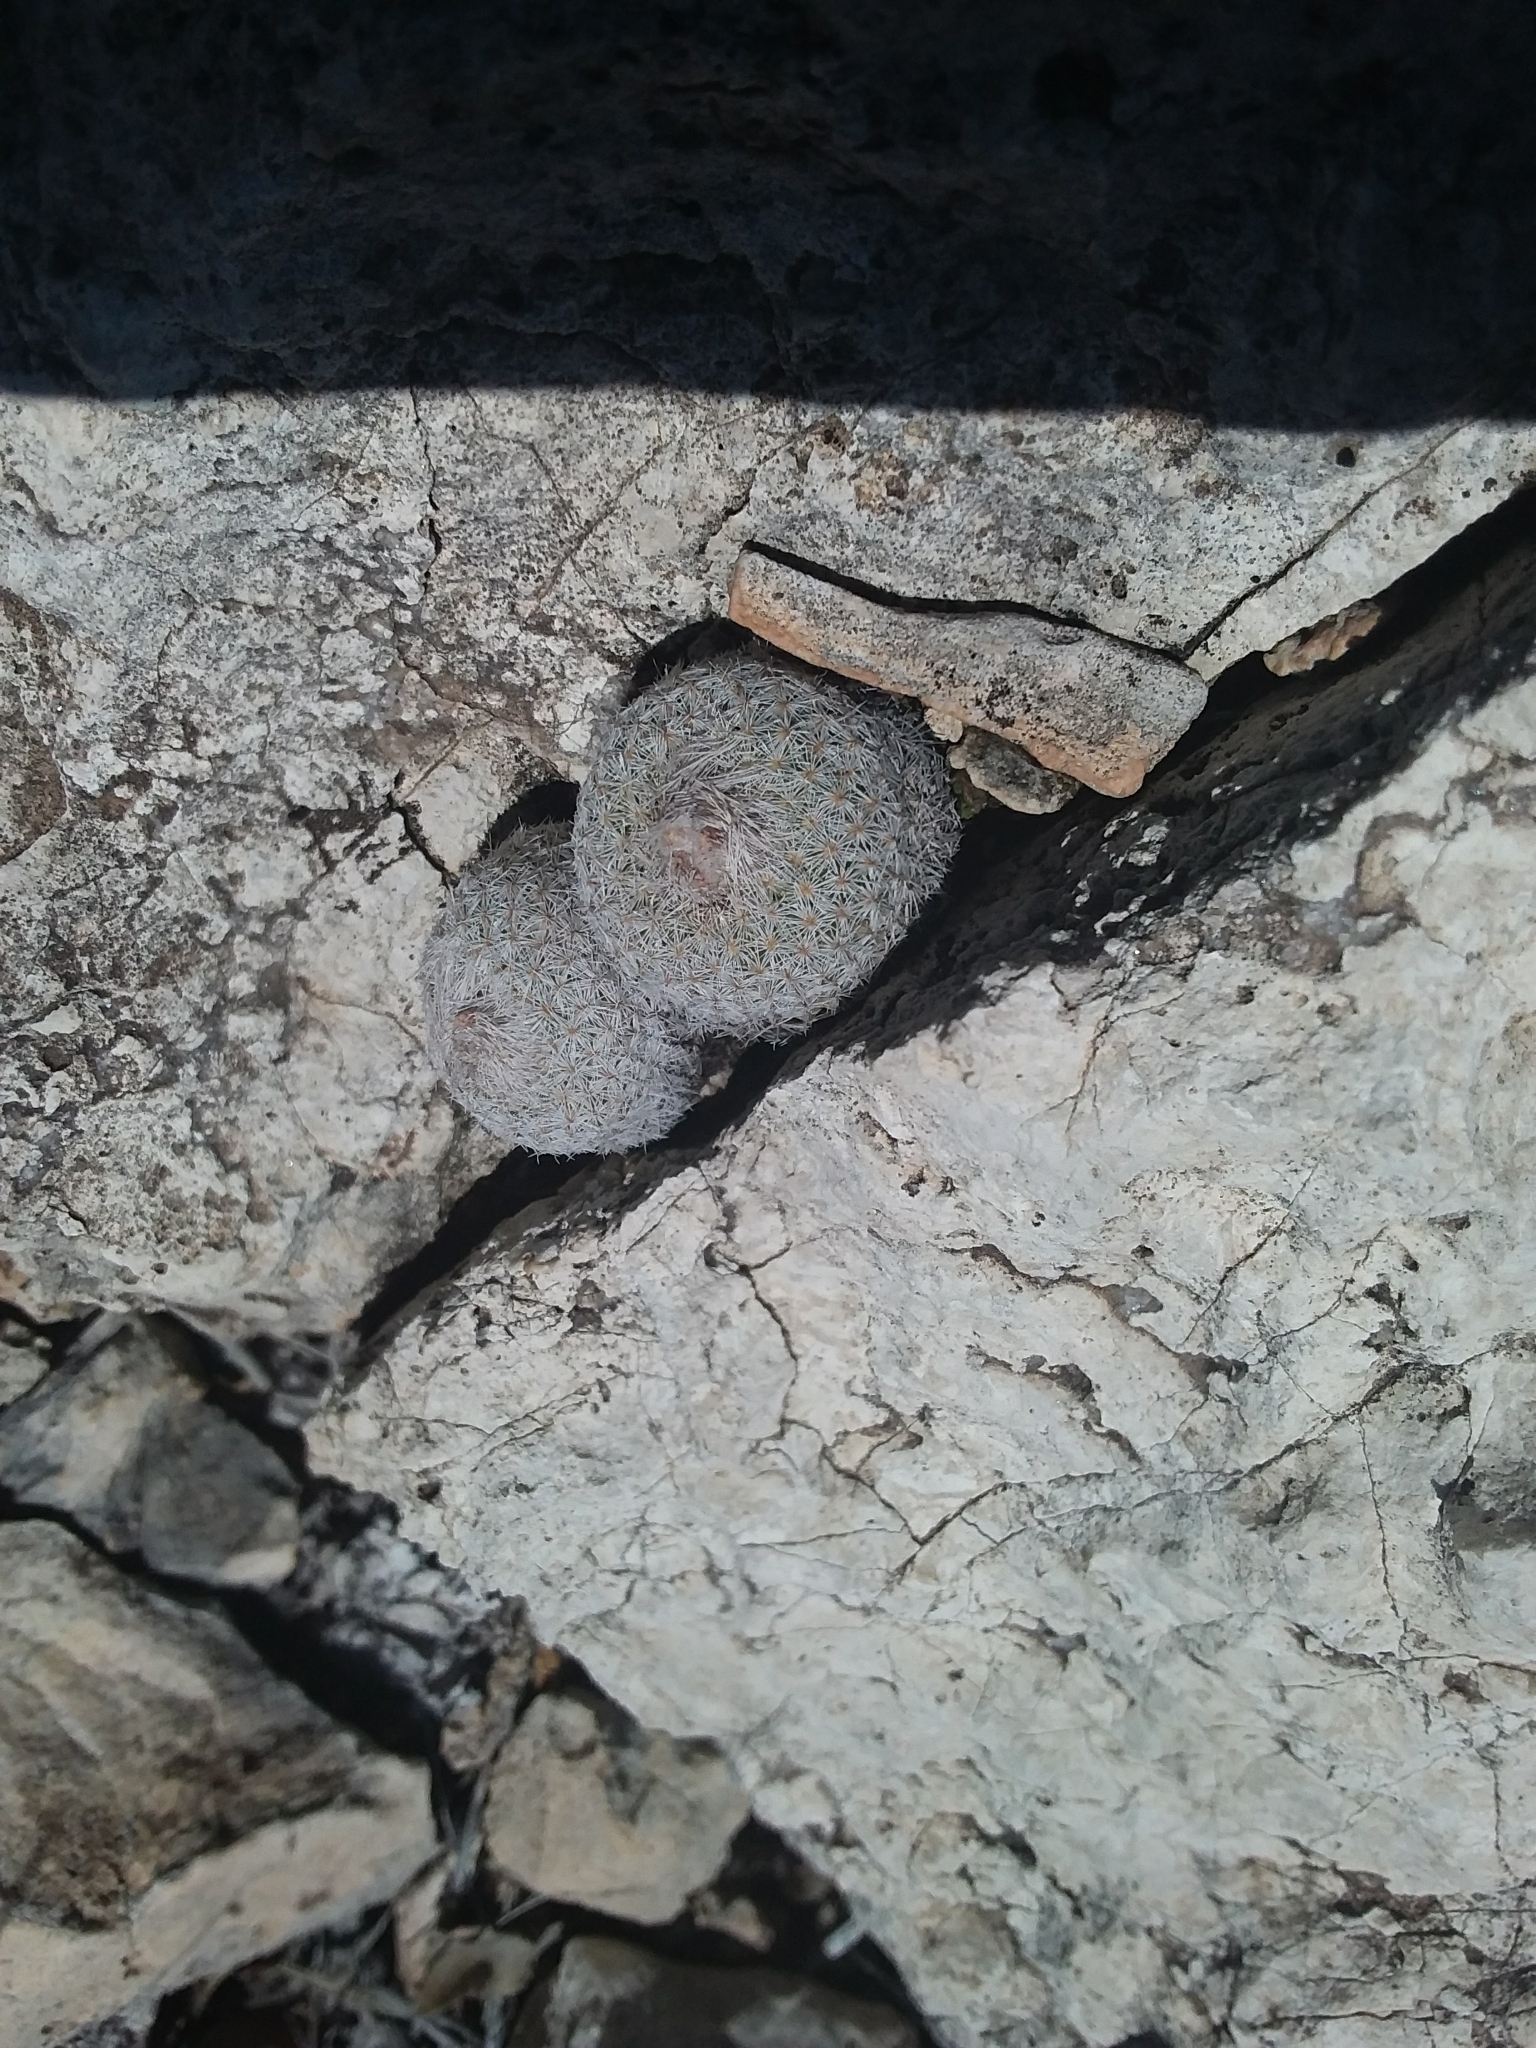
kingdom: Plantae
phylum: Tracheophyta
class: Magnoliopsida
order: Caryophyllales
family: Cactaceae
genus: Epithelantha
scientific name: Epithelantha micromeris
